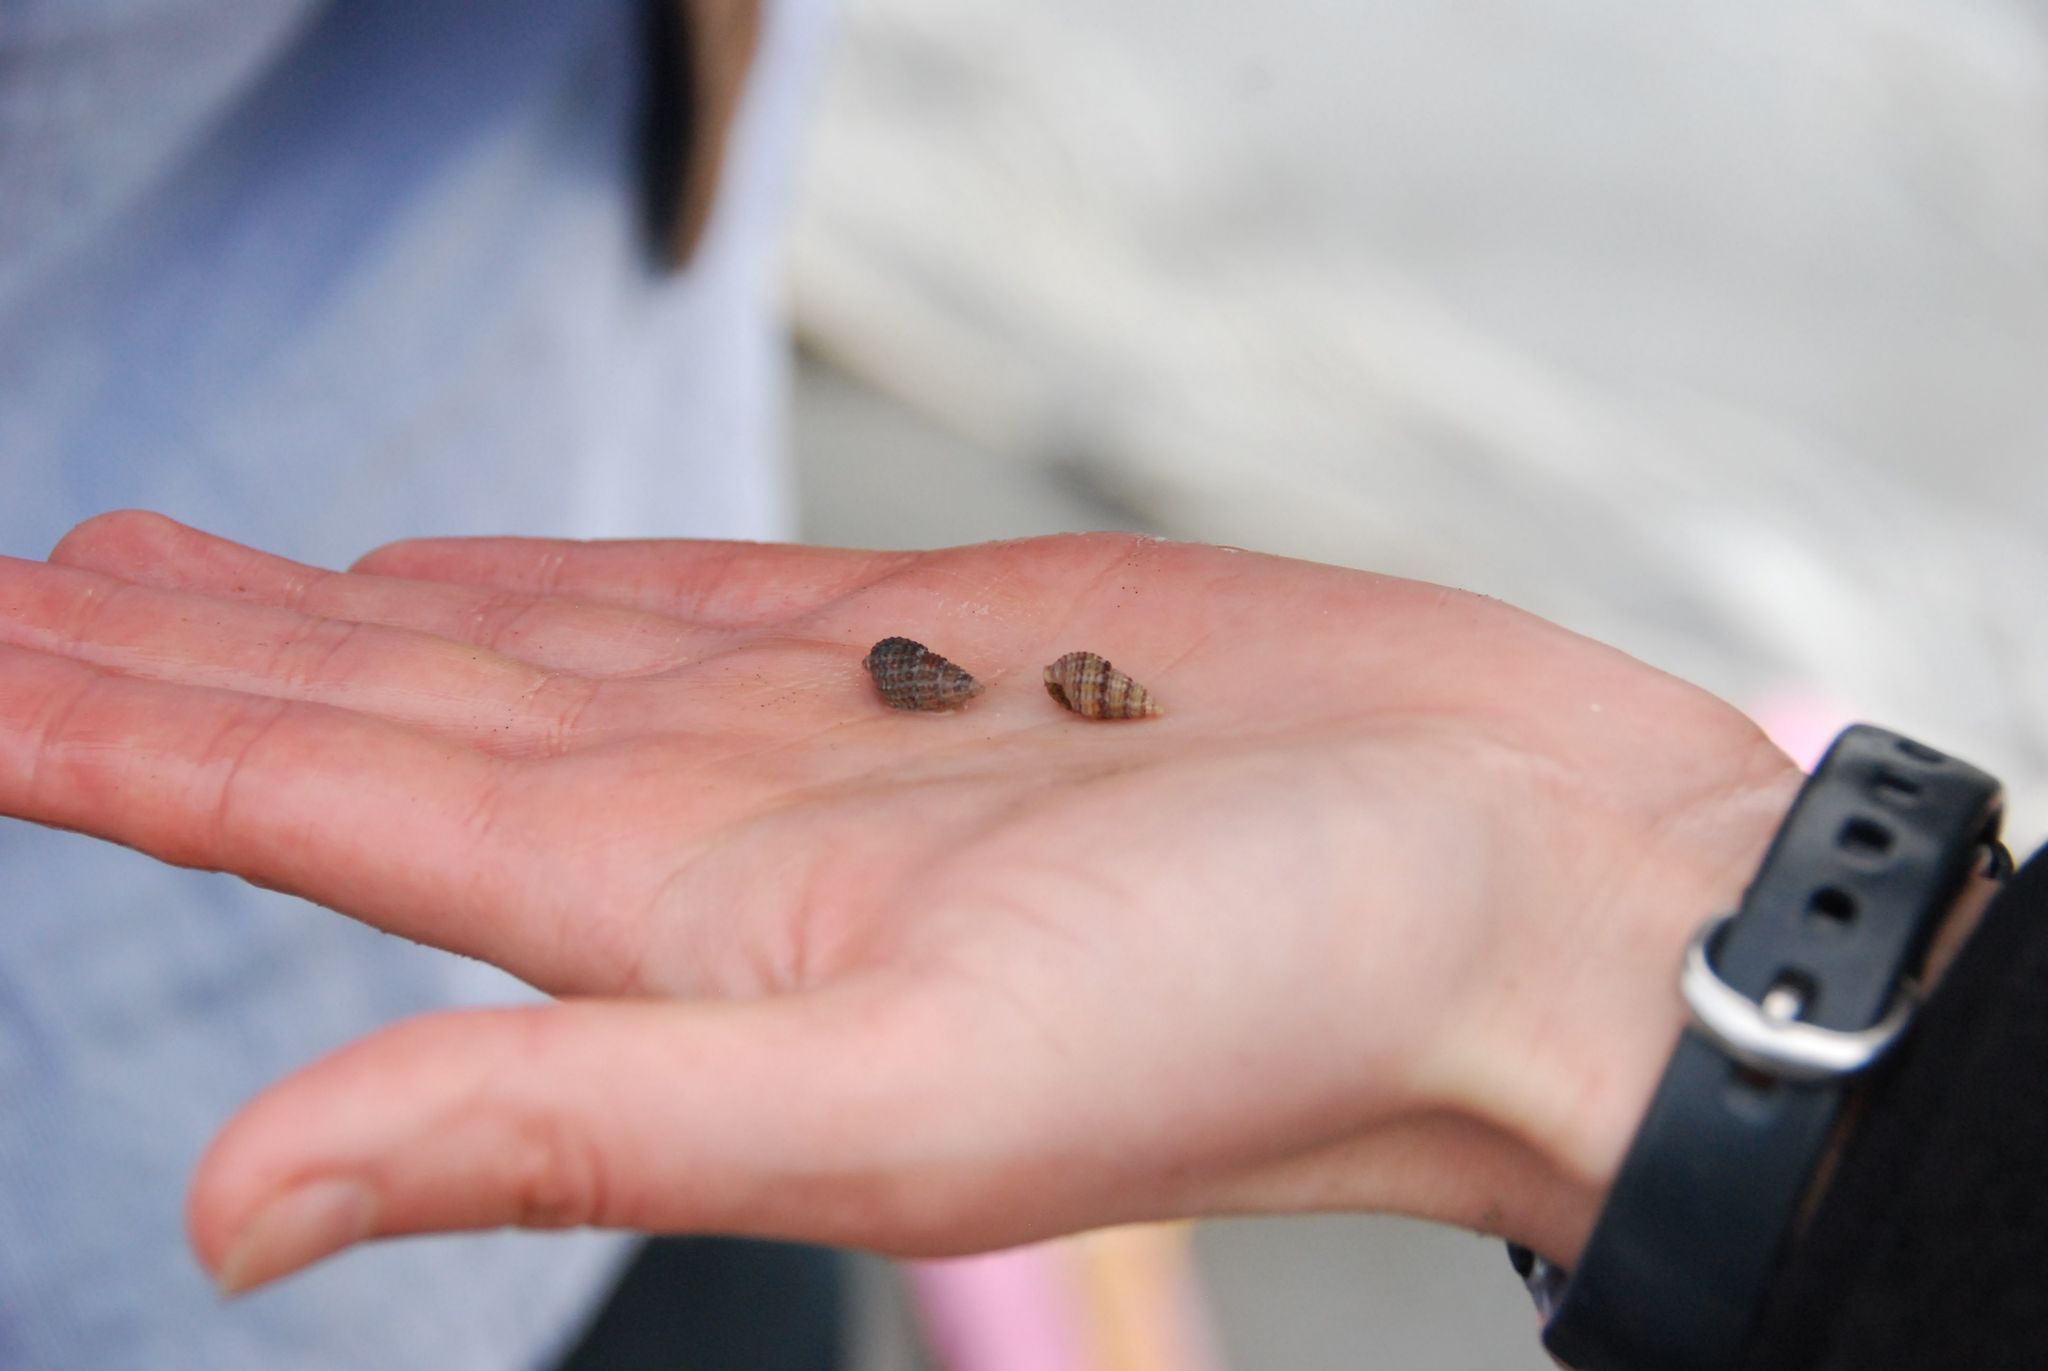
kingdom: Animalia
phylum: Mollusca
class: Gastropoda
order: Neogastropoda
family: Nassariidae
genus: Ilyanassa
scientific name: Ilyanassa trivittata
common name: Three-line mudsnail
